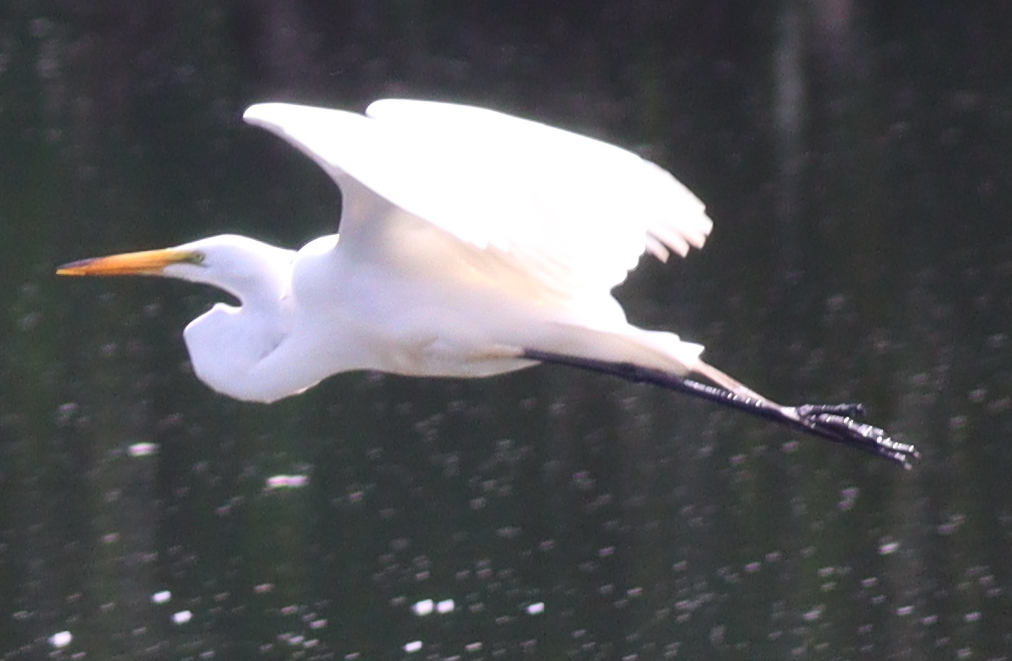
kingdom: Animalia
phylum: Chordata
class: Aves
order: Pelecaniformes
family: Ardeidae
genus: Ardea
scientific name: Ardea alba
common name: Great egret
